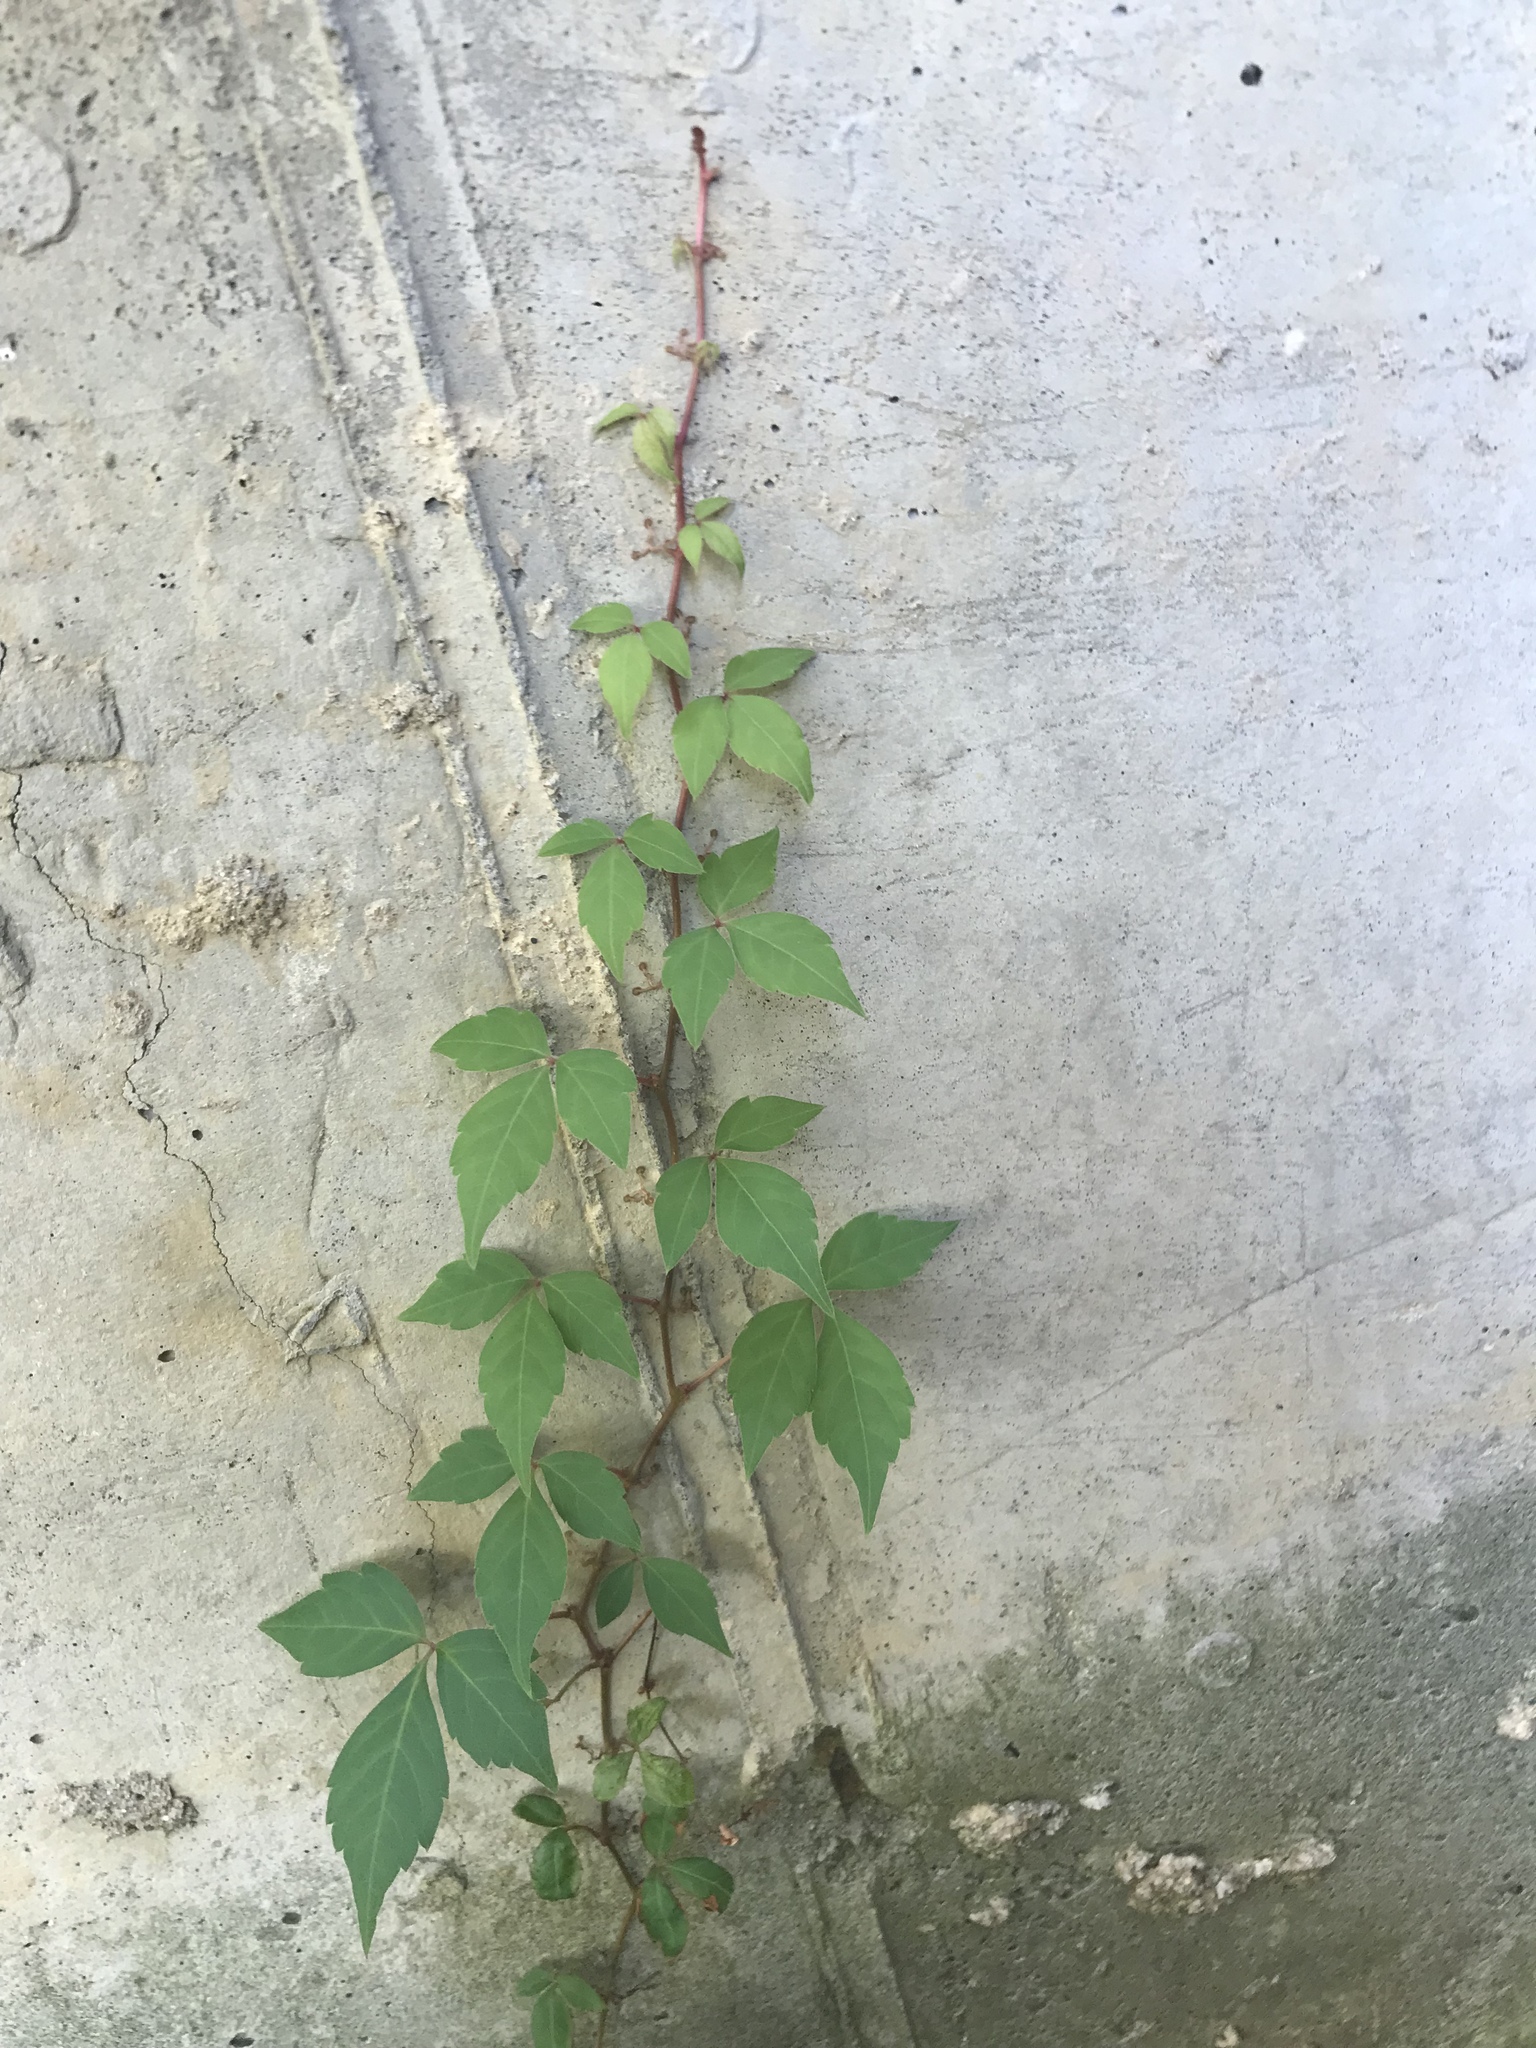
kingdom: Plantae
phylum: Tracheophyta
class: Magnoliopsida
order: Vitales
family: Vitaceae
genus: Parthenocissus
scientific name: Parthenocissus quinquefolia
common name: Virginia-creeper
